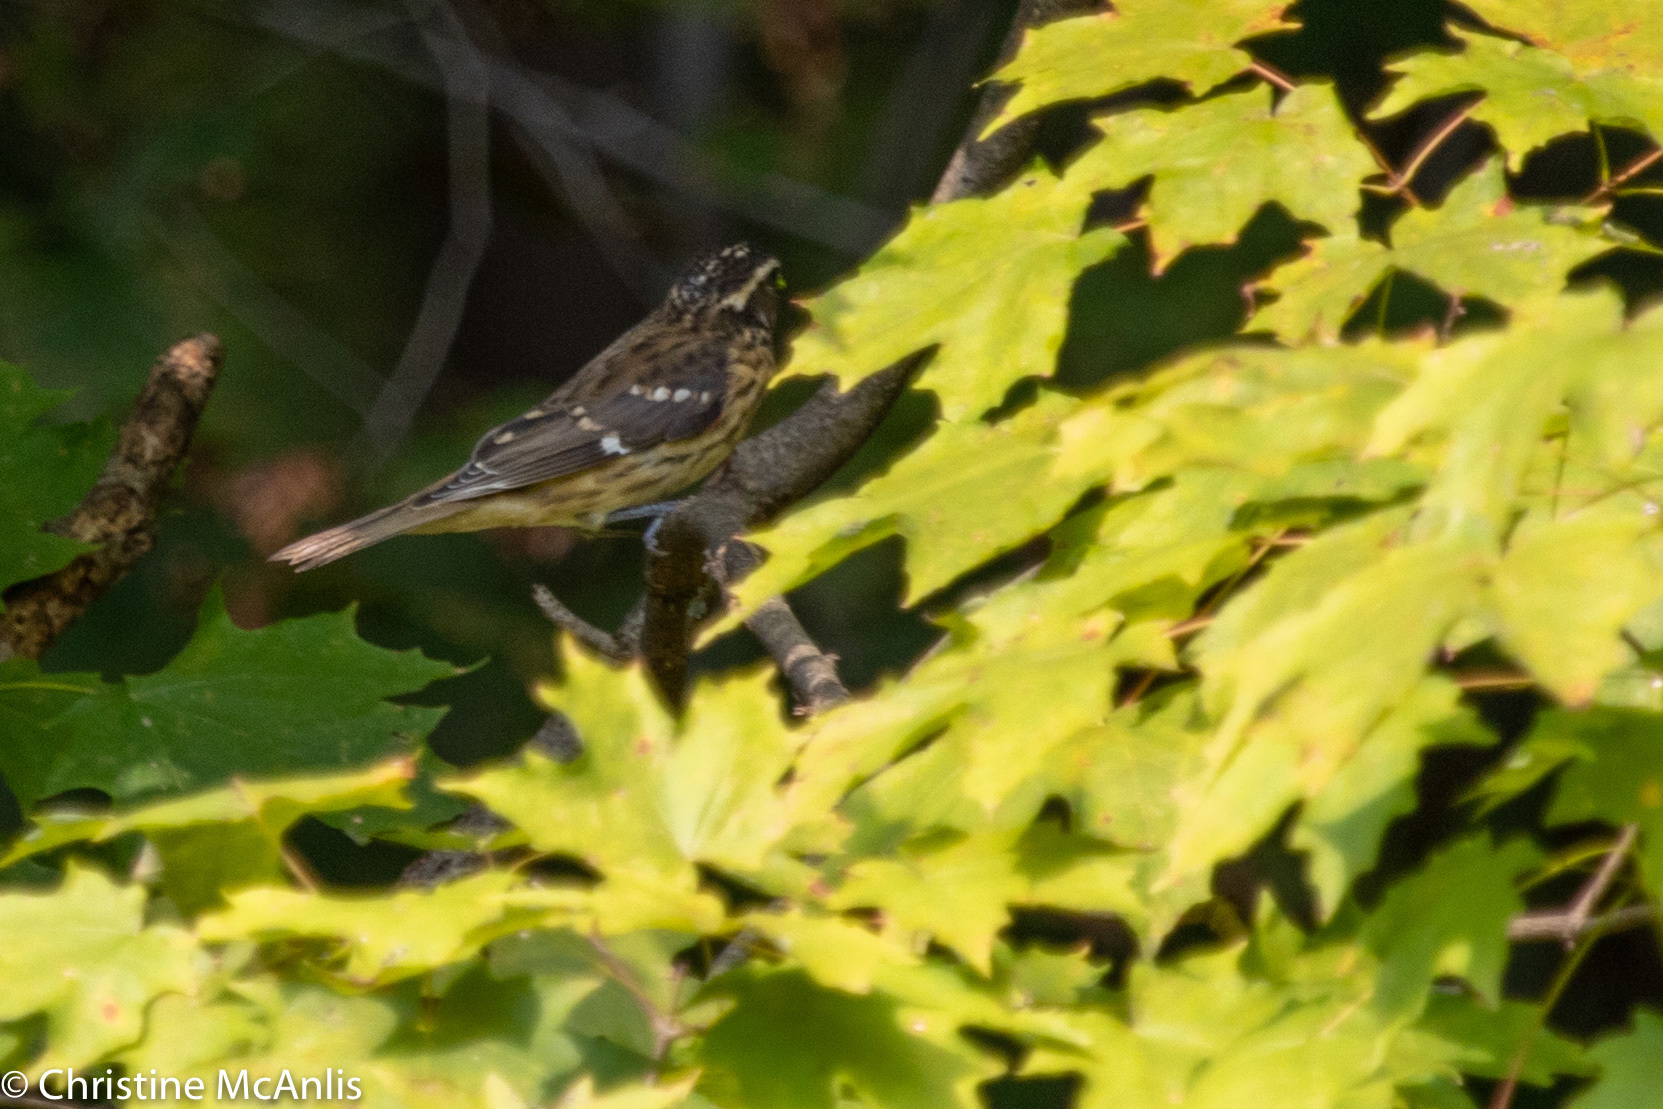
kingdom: Animalia
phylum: Chordata
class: Aves
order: Passeriformes
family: Cardinalidae
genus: Pheucticus
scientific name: Pheucticus ludovicianus
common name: Rose-breasted grosbeak
